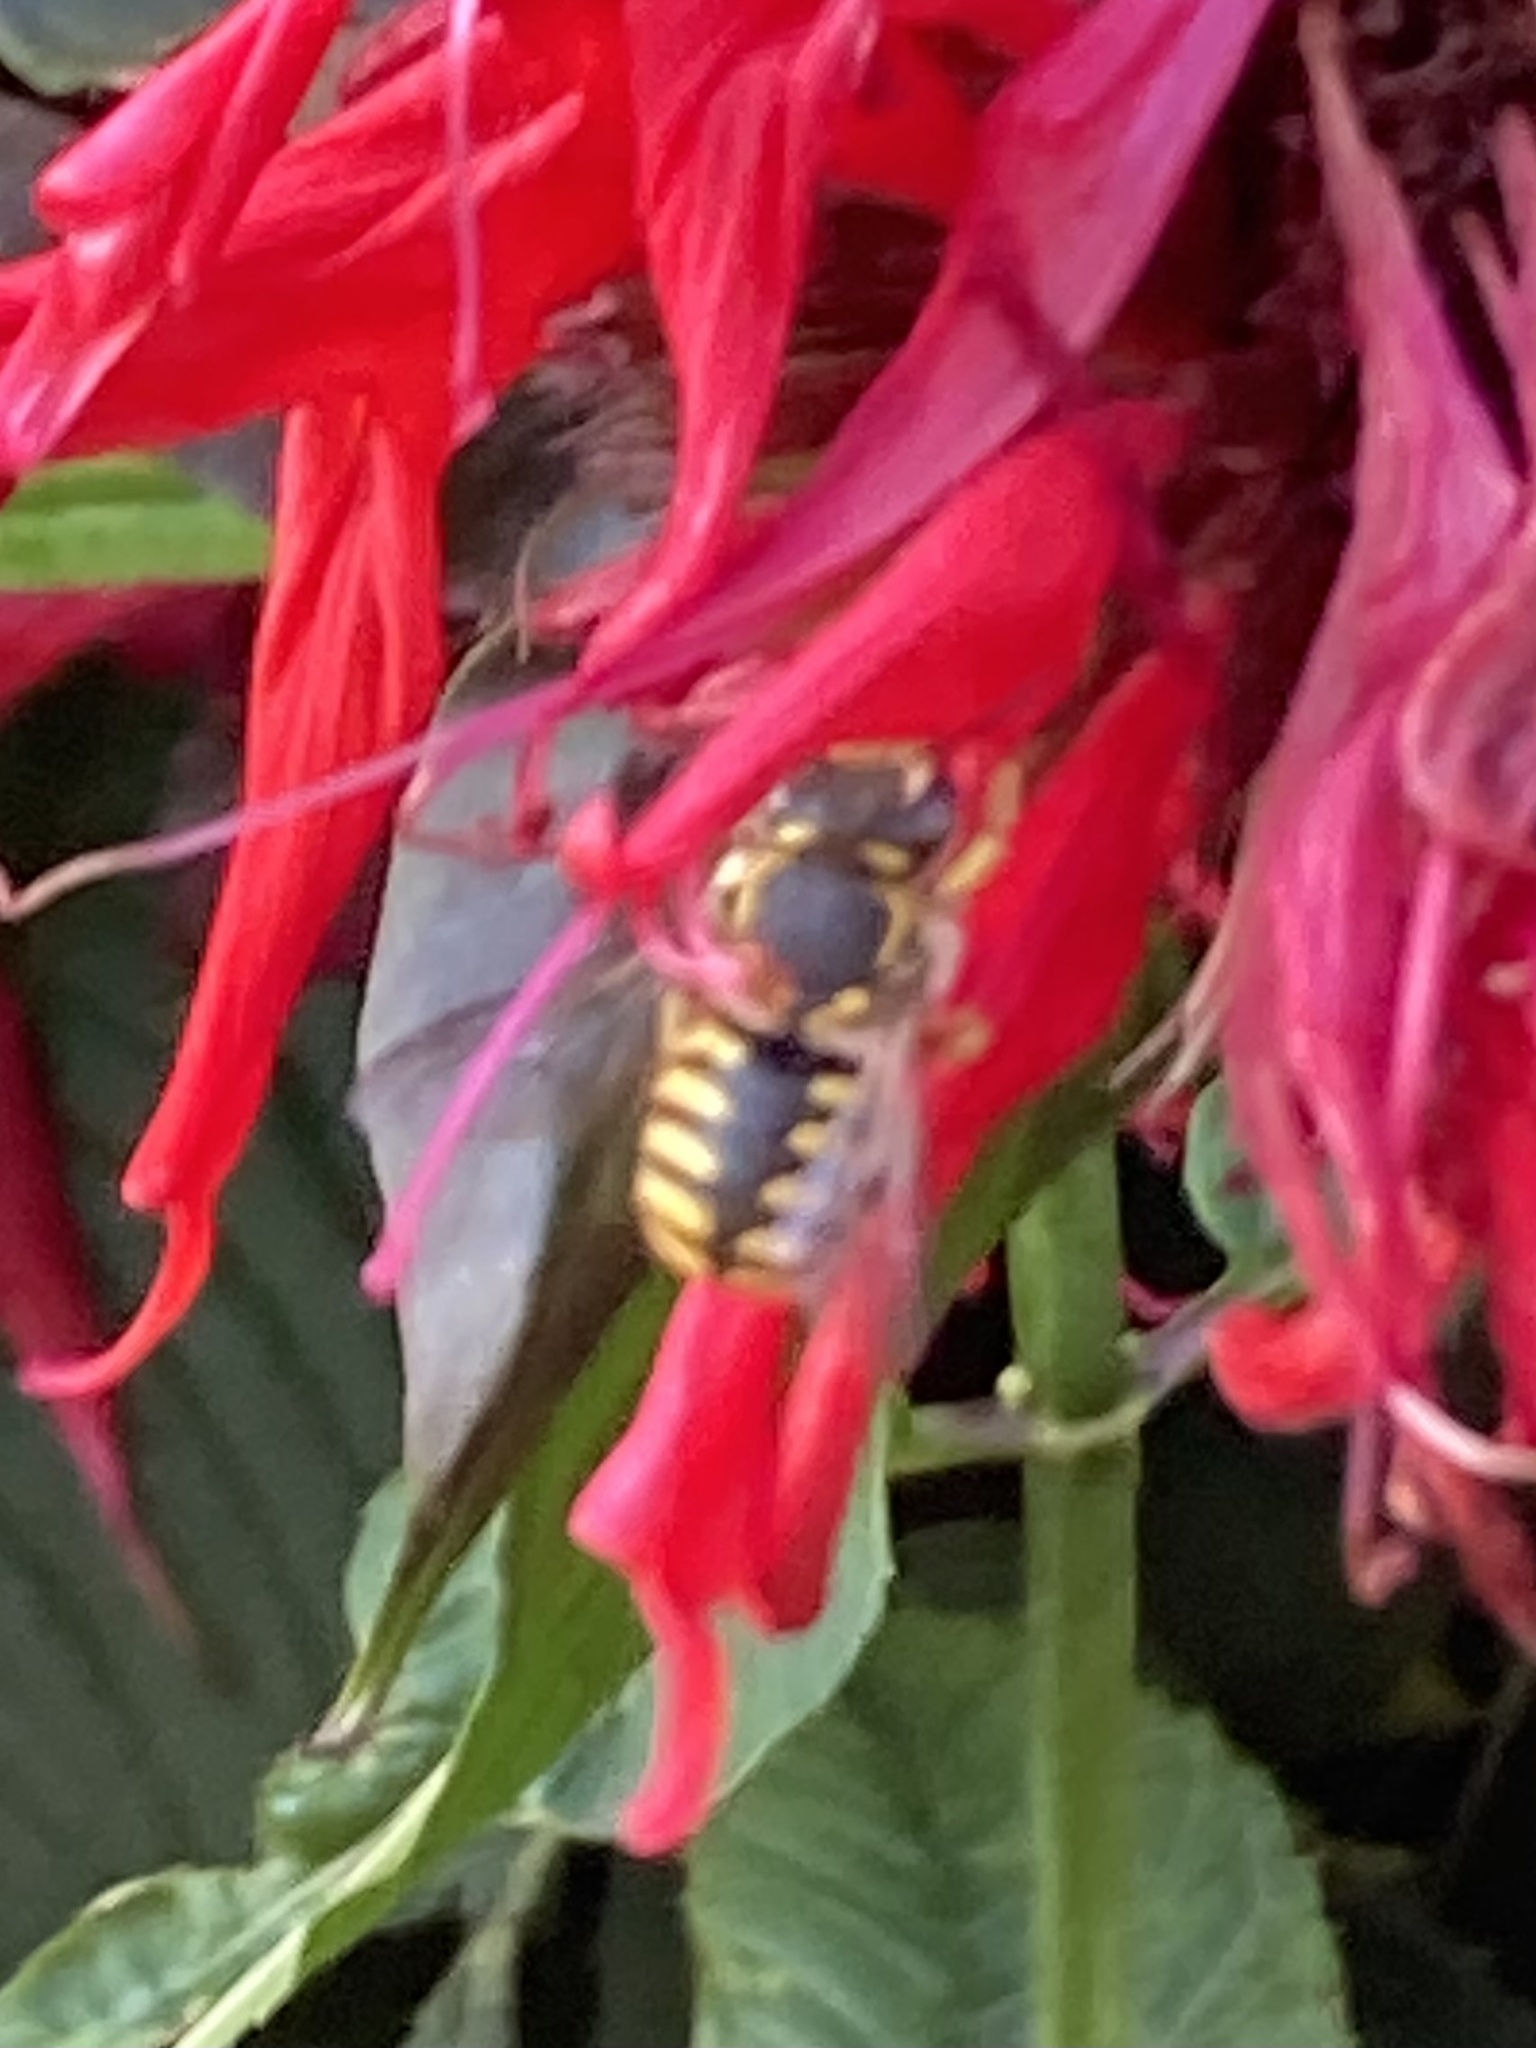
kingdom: Animalia
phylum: Arthropoda
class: Insecta
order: Hymenoptera
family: Megachilidae
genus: Anthidium
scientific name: Anthidium manicatum
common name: Wool carder bee
